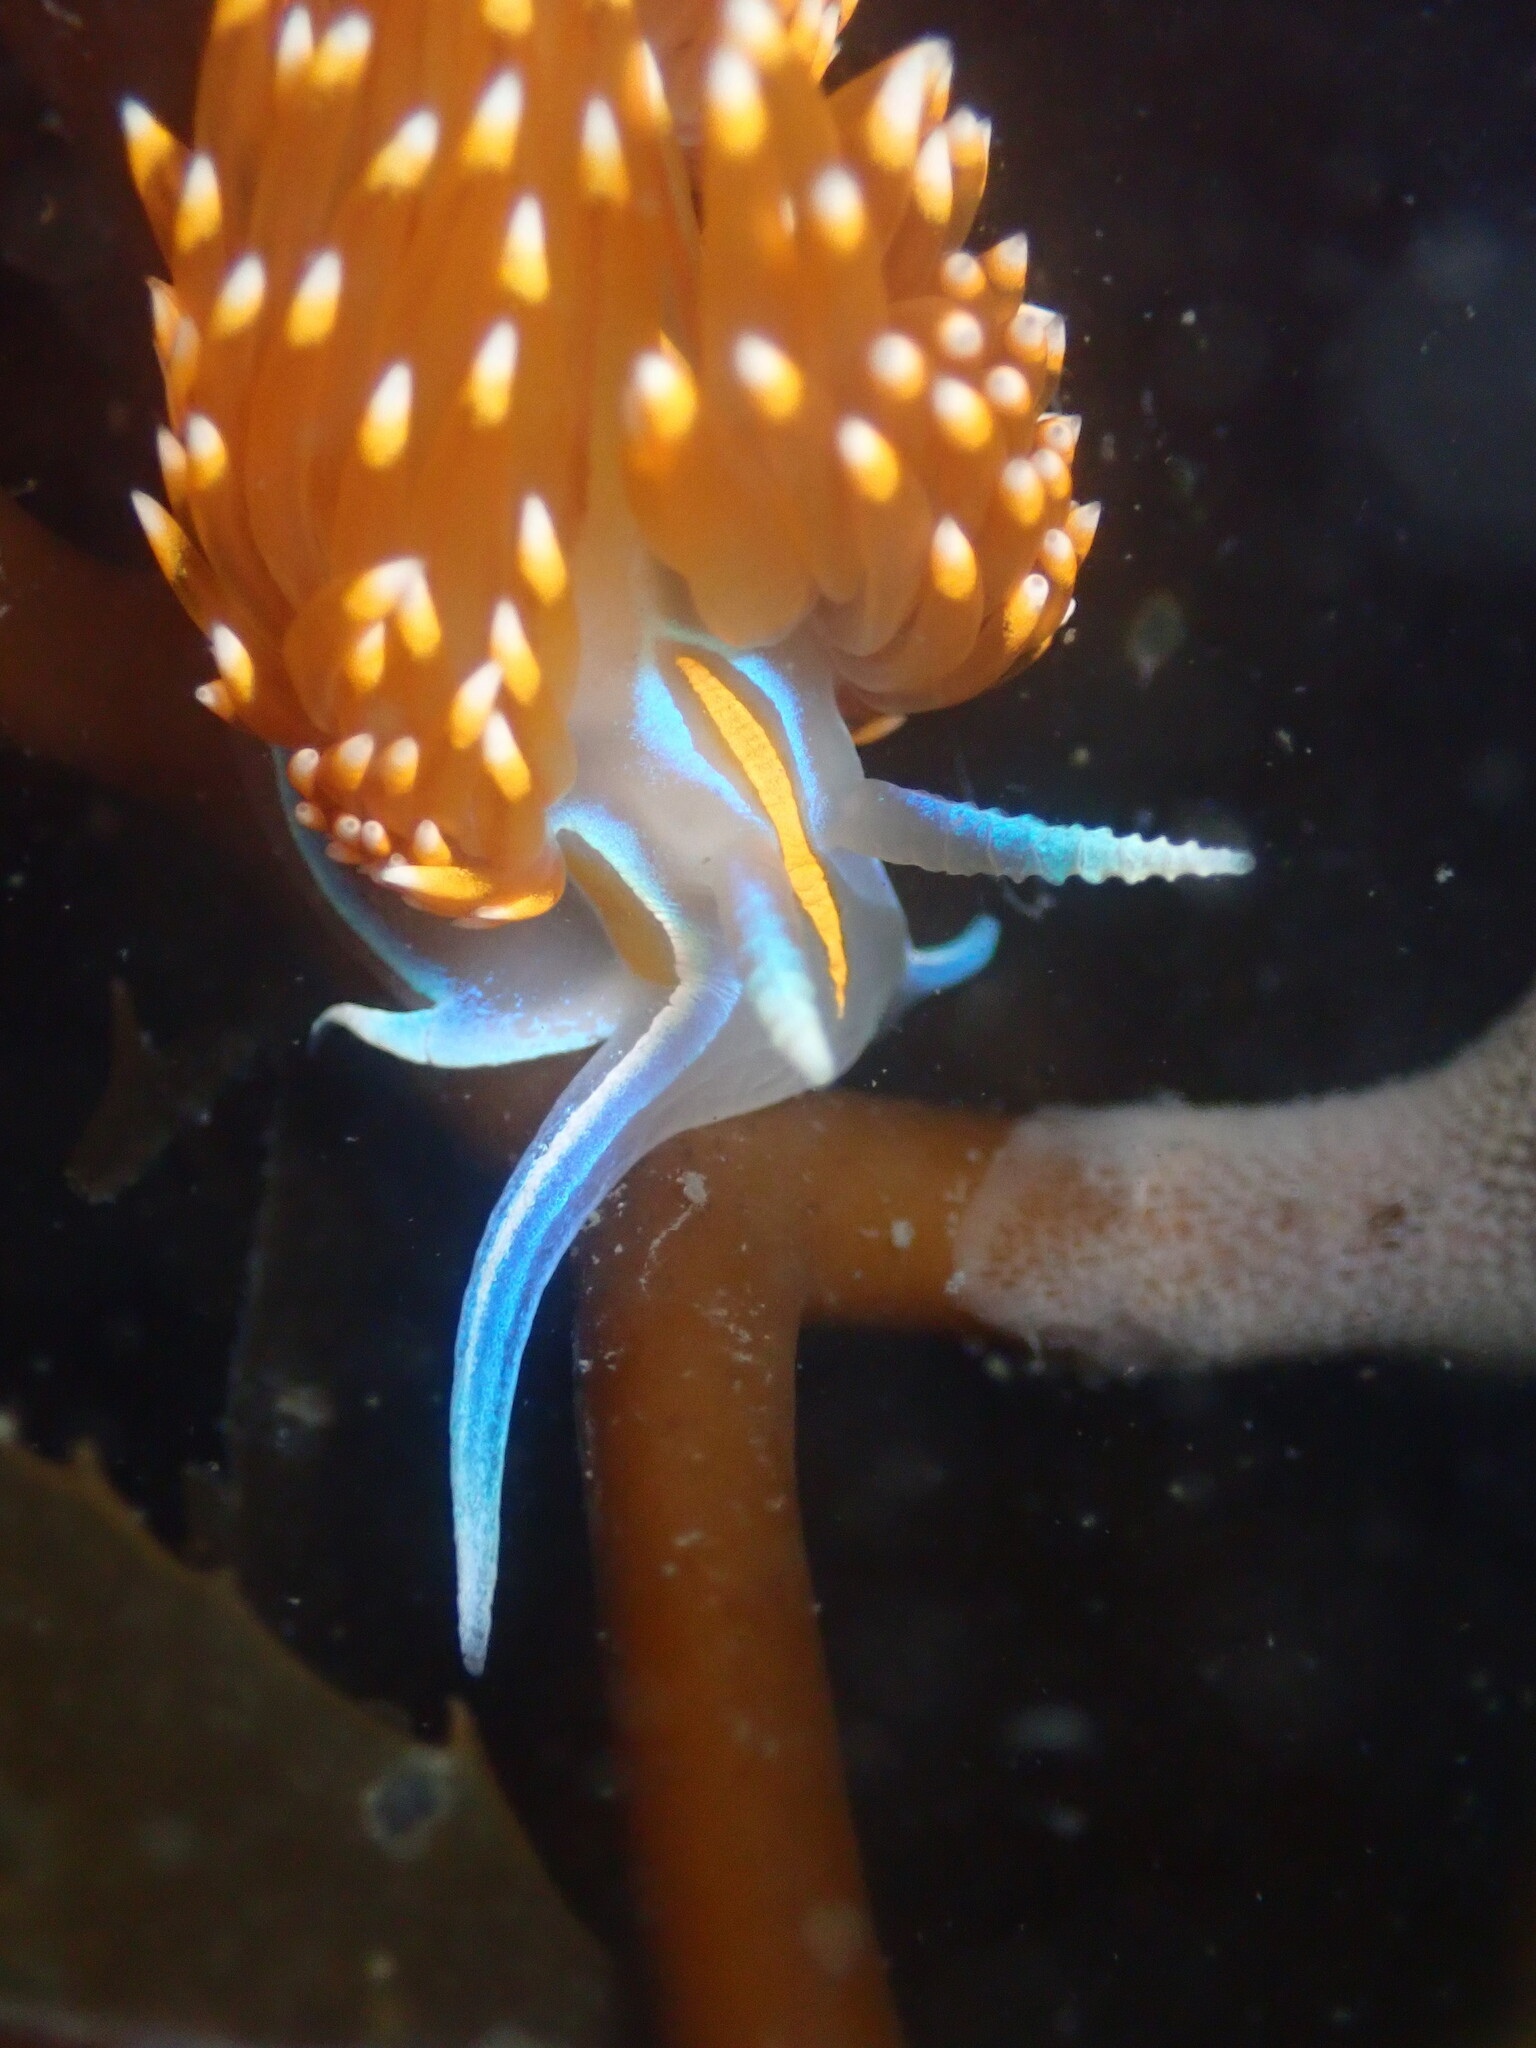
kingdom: Animalia
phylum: Mollusca
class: Gastropoda
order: Nudibranchia
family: Myrrhinidae
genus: Hermissenda
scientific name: Hermissenda opalescens
